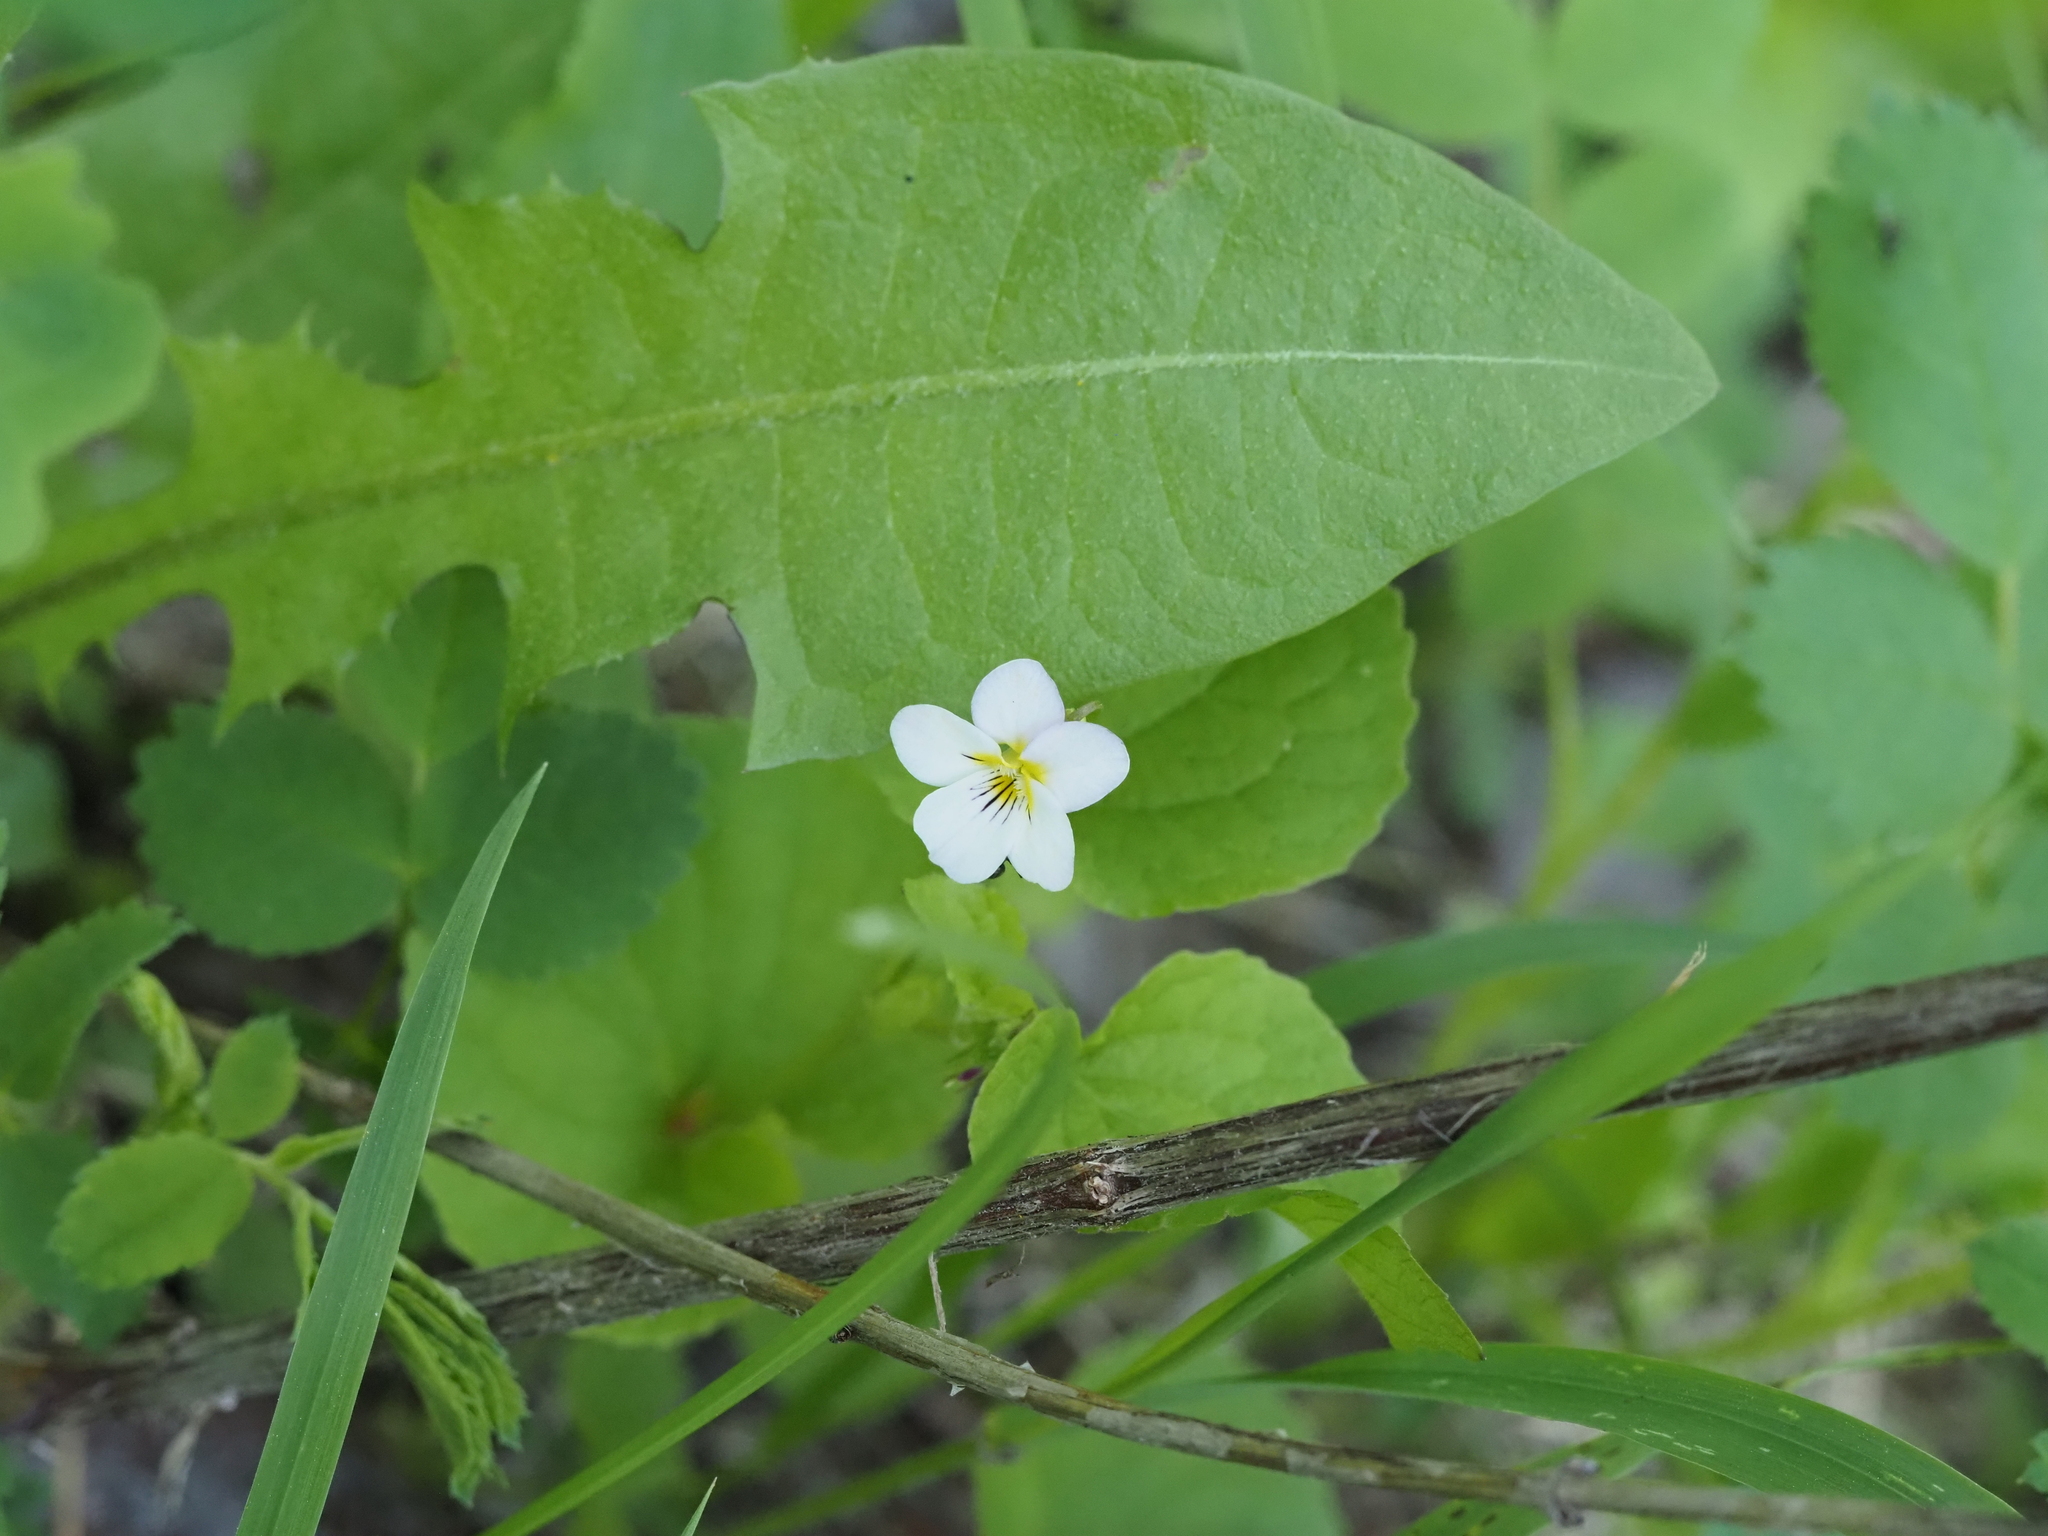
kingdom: Plantae
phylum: Tracheophyta
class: Magnoliopsida
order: Malpighiales
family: Violaceae
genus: Viola
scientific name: Viola canadensis
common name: Canada violet
